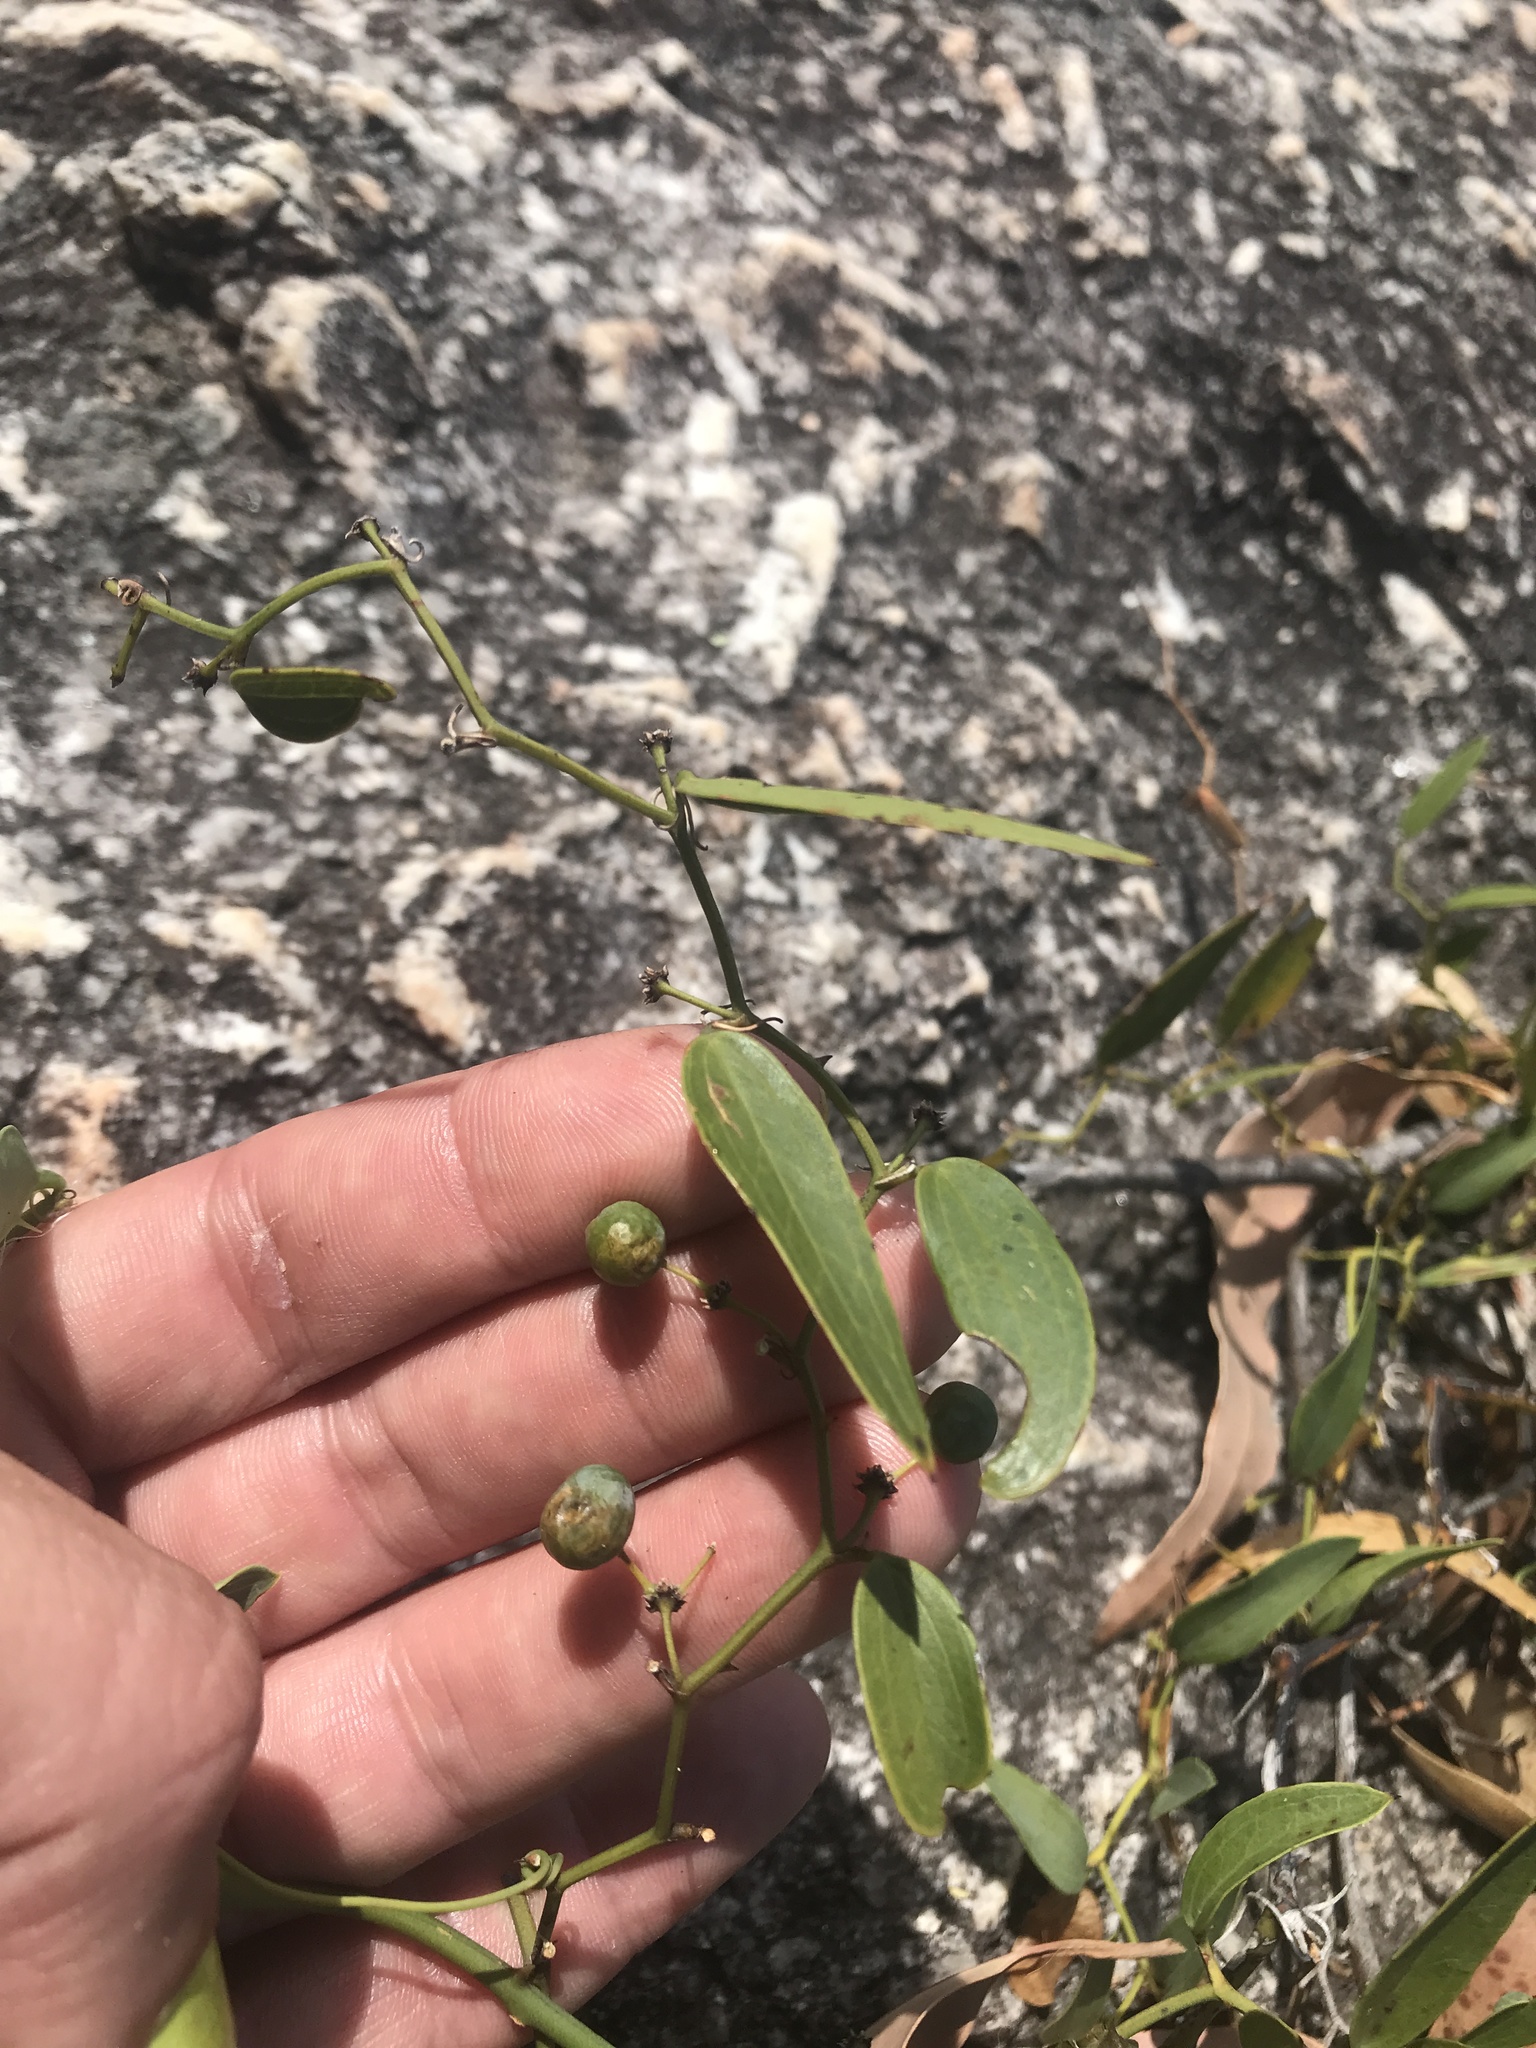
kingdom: Plantae
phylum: Tracheophyta
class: Liliopsida
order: Liliales
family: Smilacaceae
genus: Smilax
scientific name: Smilax campestris
